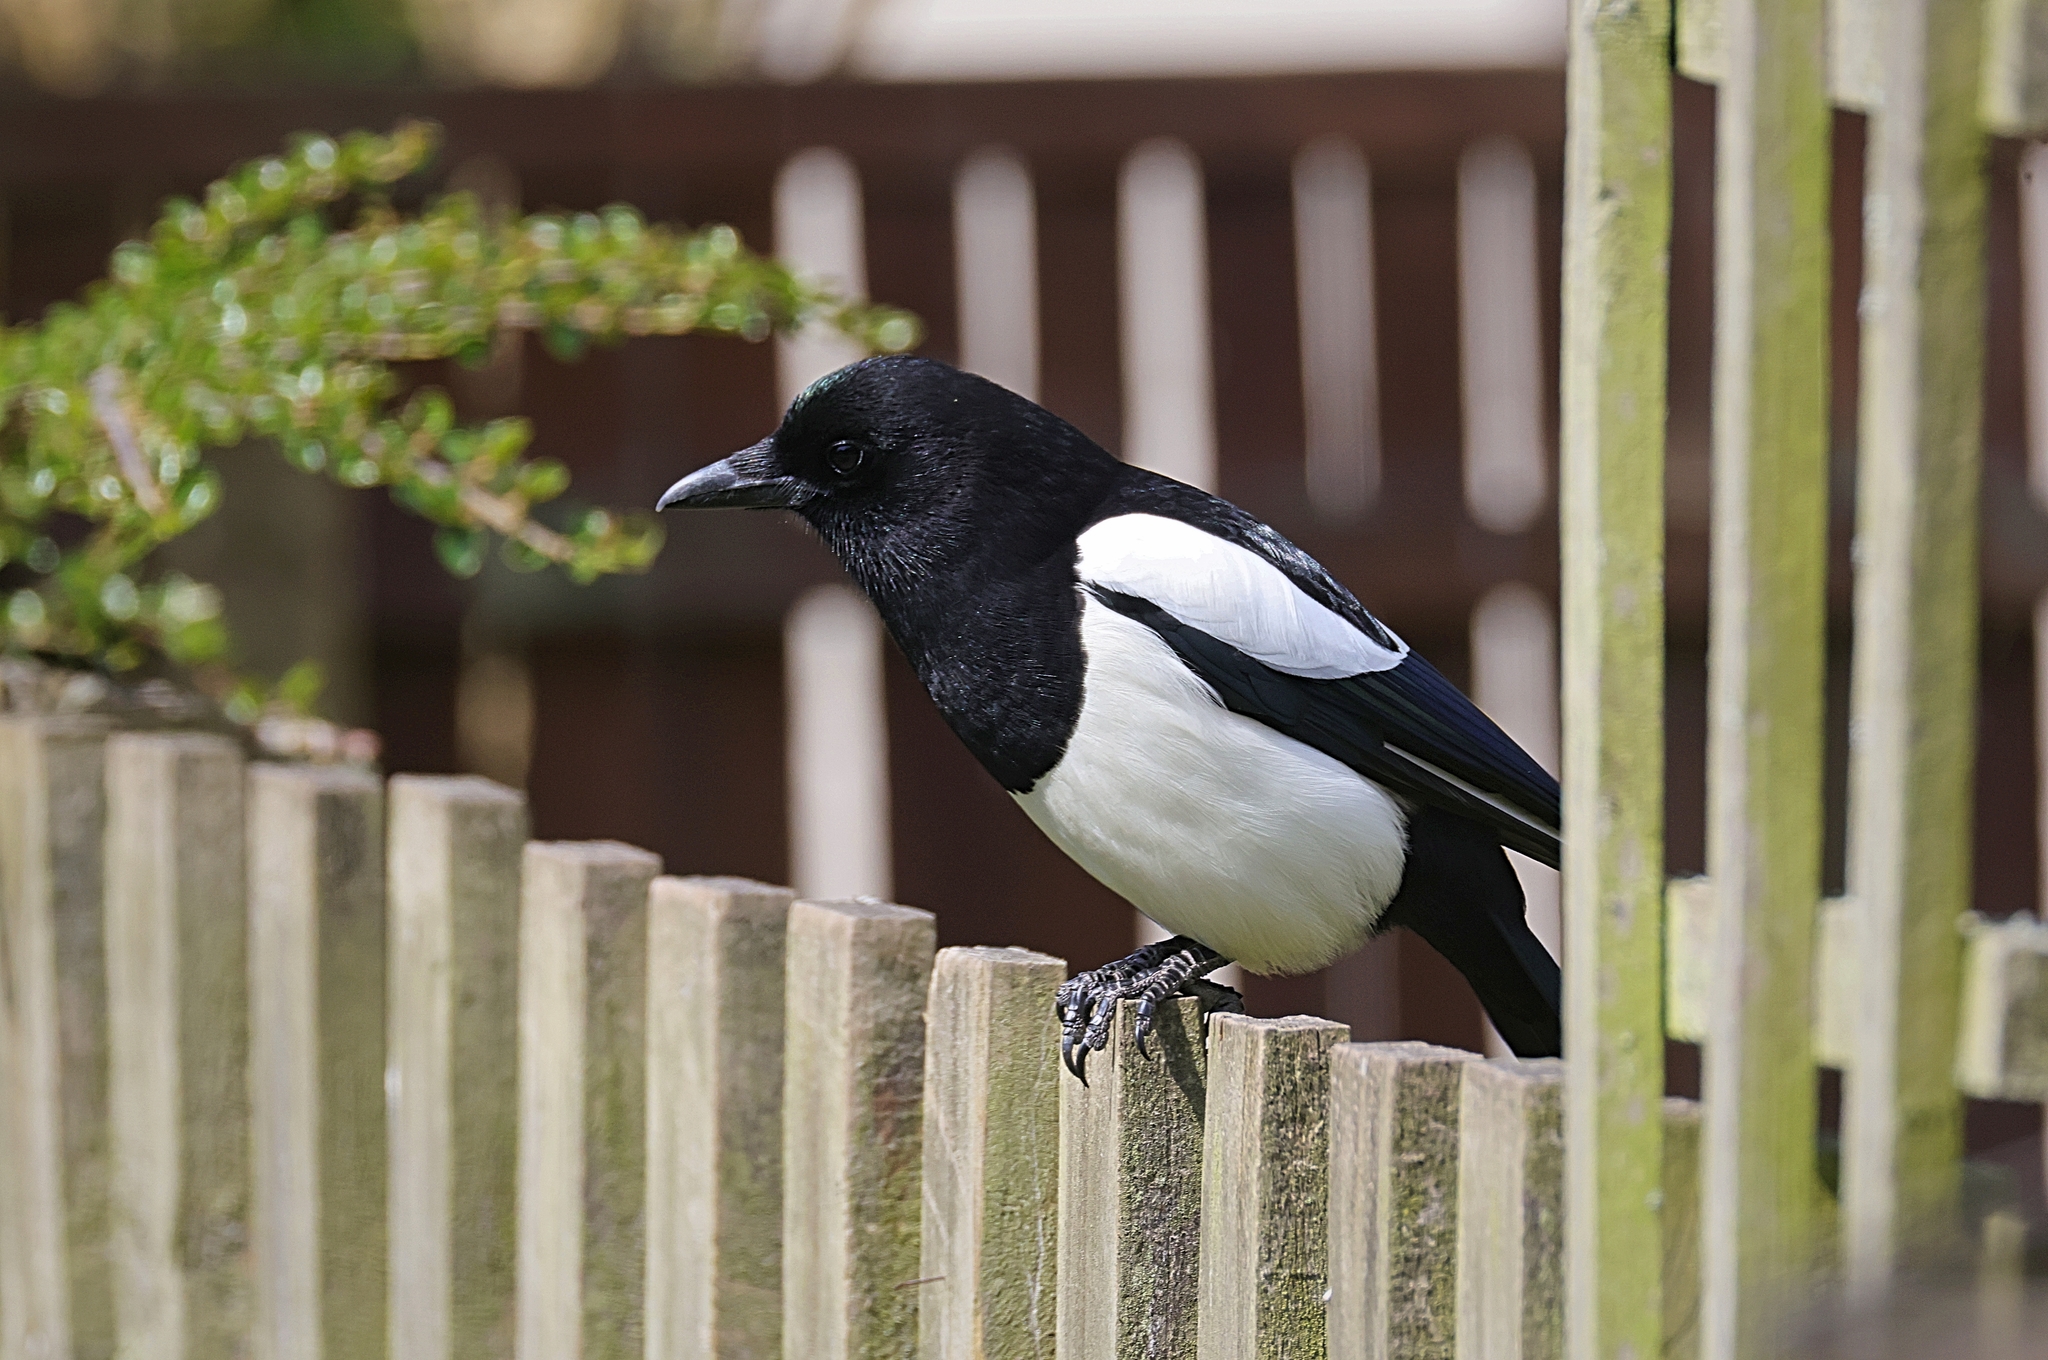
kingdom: Animalia
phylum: Chordata
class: Aves
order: Passeriformes
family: Corvidae
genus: Pica
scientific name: Pica pica
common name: Eurasian magpie
